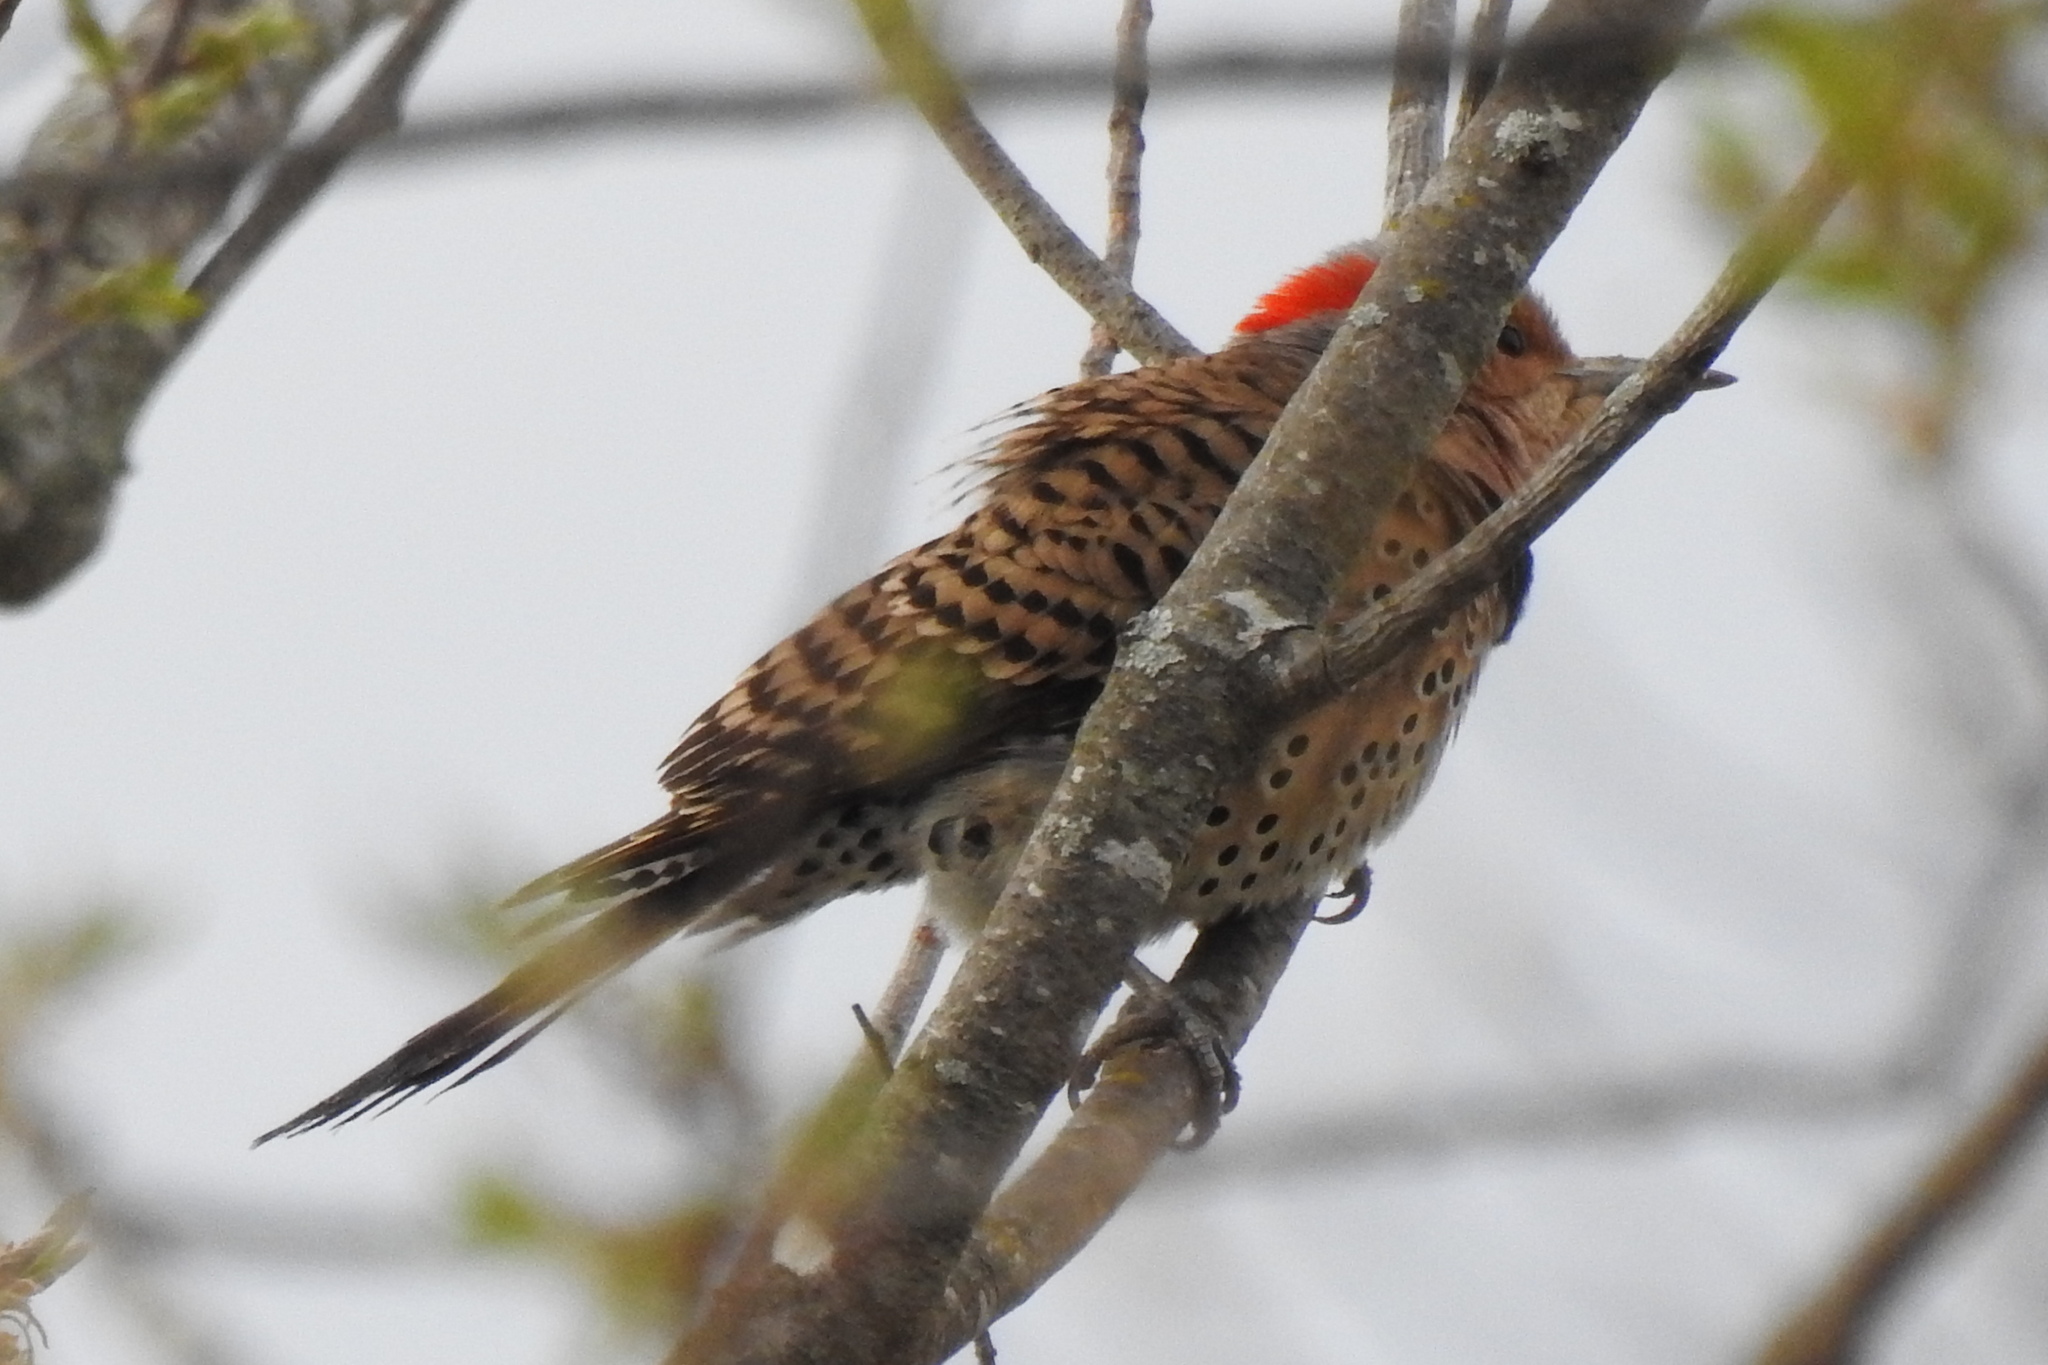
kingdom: Animalia
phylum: Chordata
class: Aves
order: Piciformes
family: Picidae
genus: Colaptes
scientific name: Colaptes auratus
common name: Northern flicker
